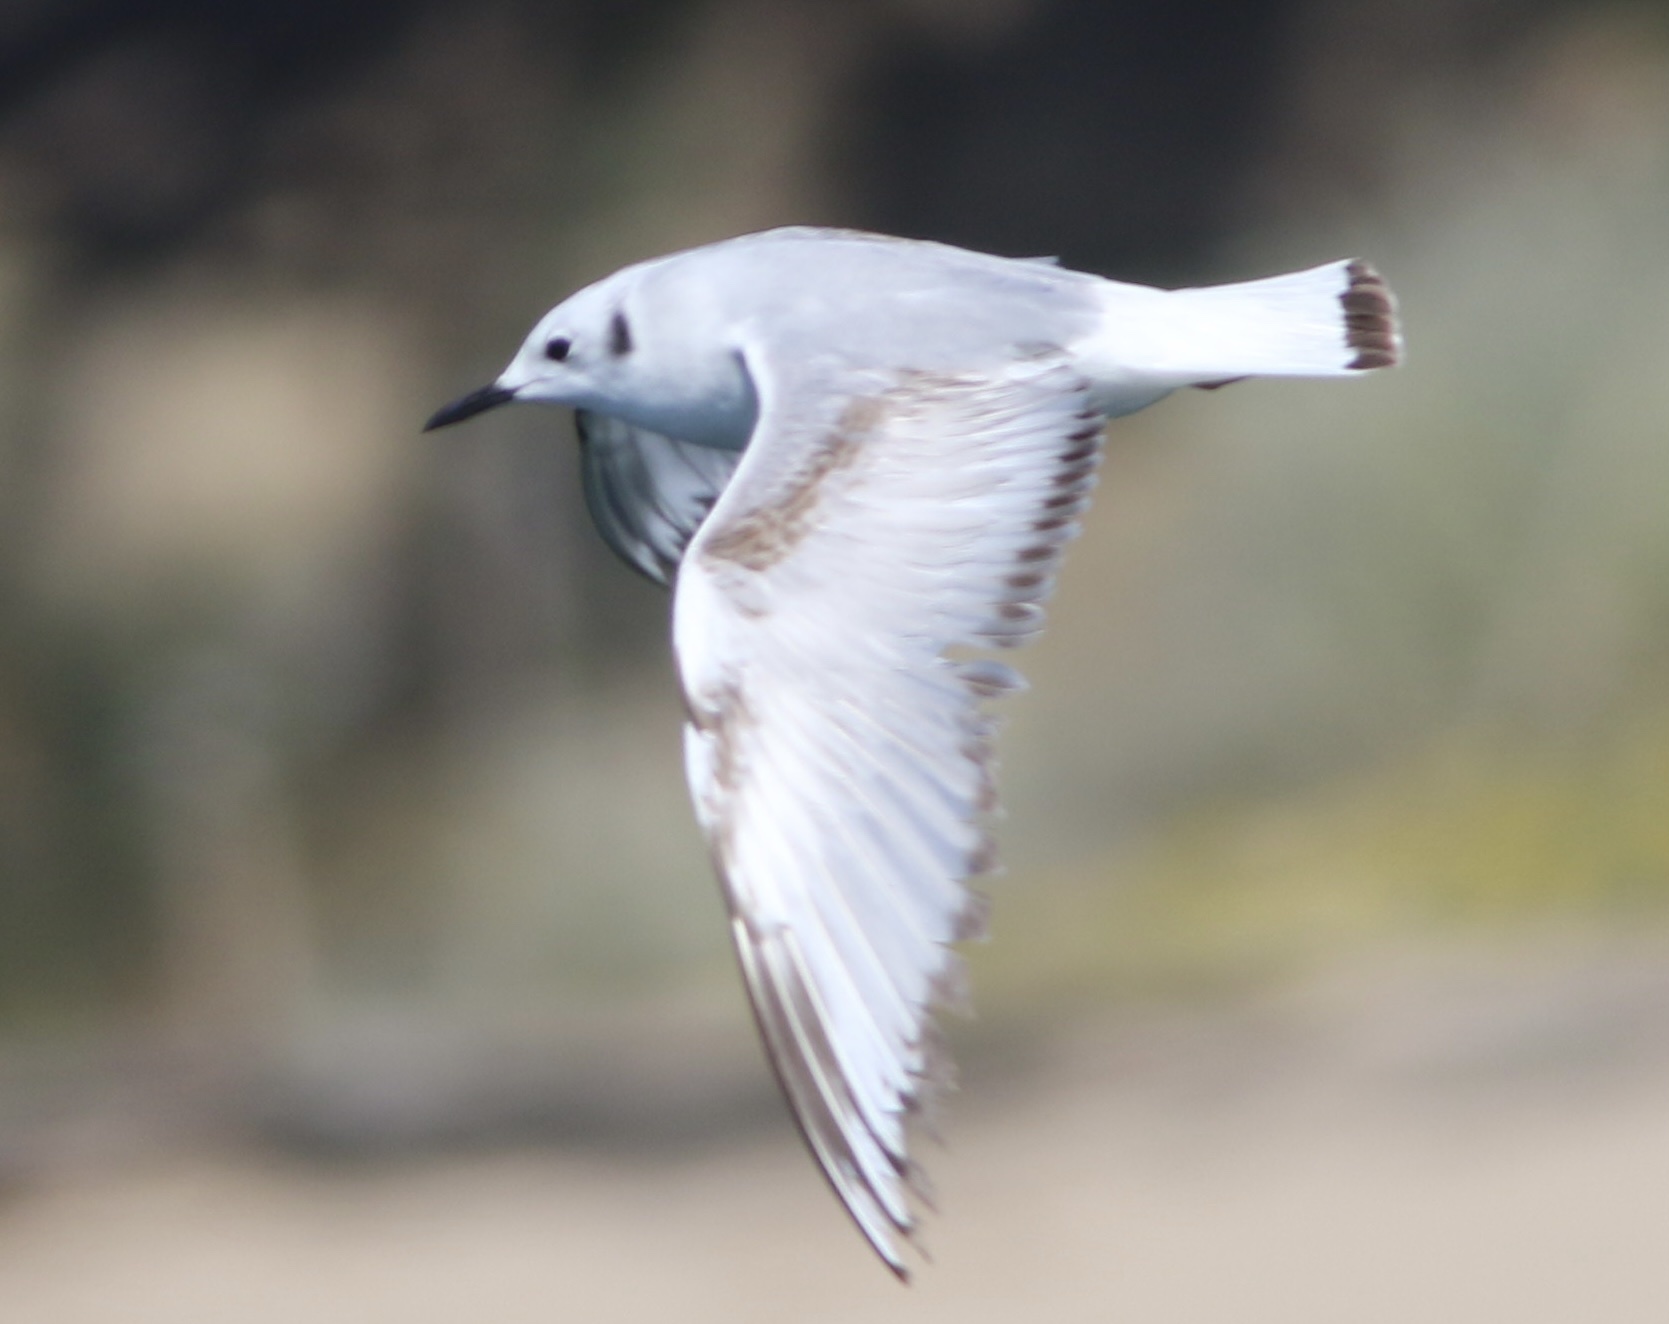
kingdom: Animalia
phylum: Chordata
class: Aves
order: Charadriiformes
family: Laridae
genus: Chroicocephalus
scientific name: Chroicocephalus philadelphia
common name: Bonaparte's gull
